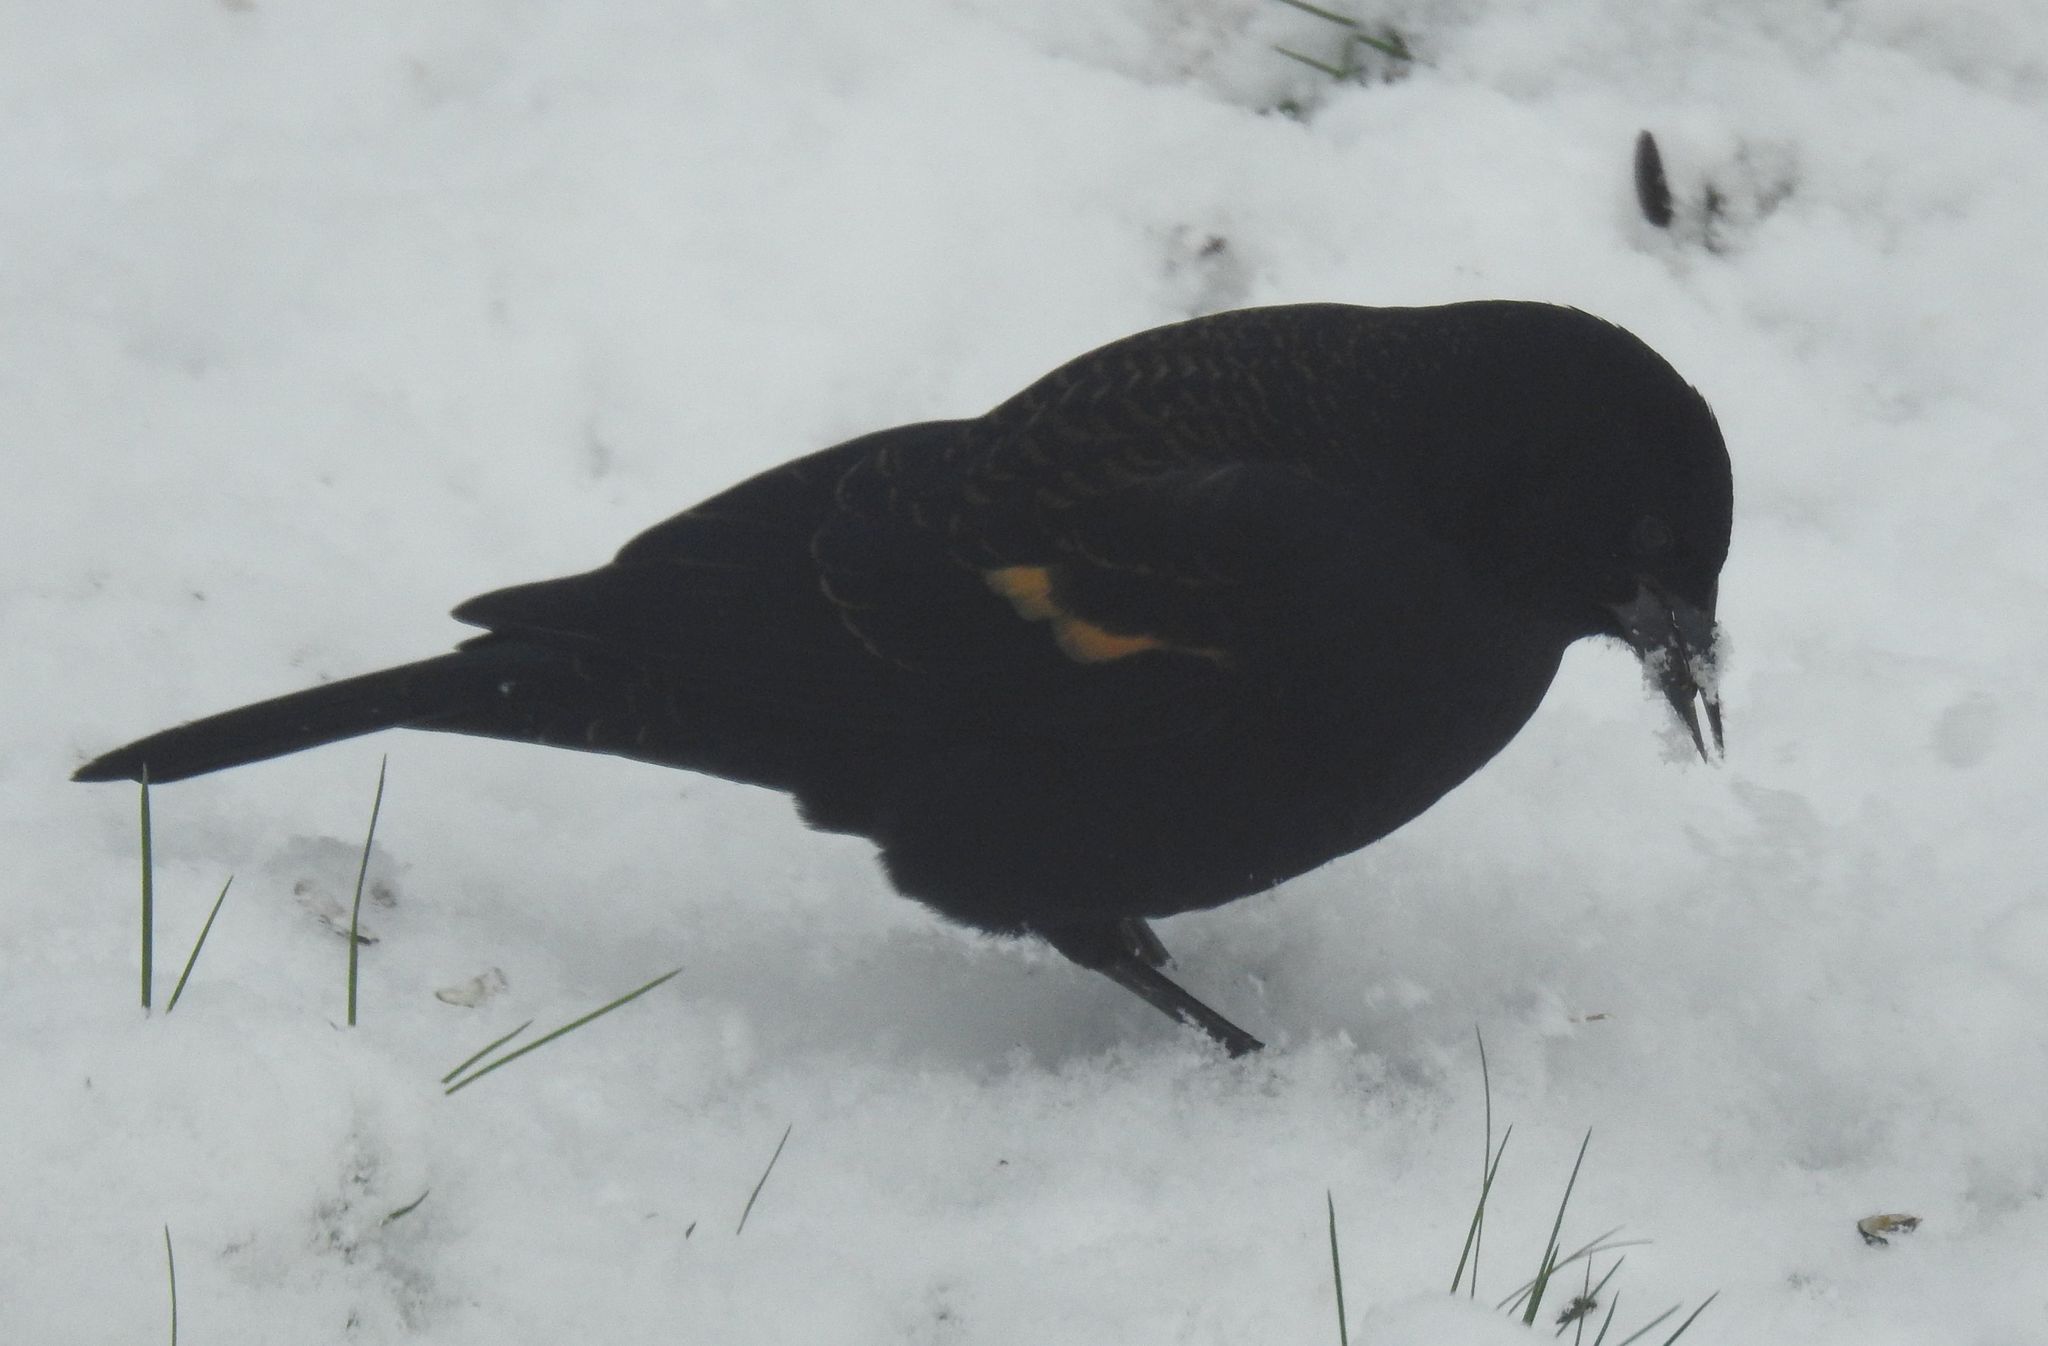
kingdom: Animalia
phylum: Chordata
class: Aves
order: Passeriformes
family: Icteridae
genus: Agelaius
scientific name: Agelaius phoeniceus
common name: Red-winged blackbird
